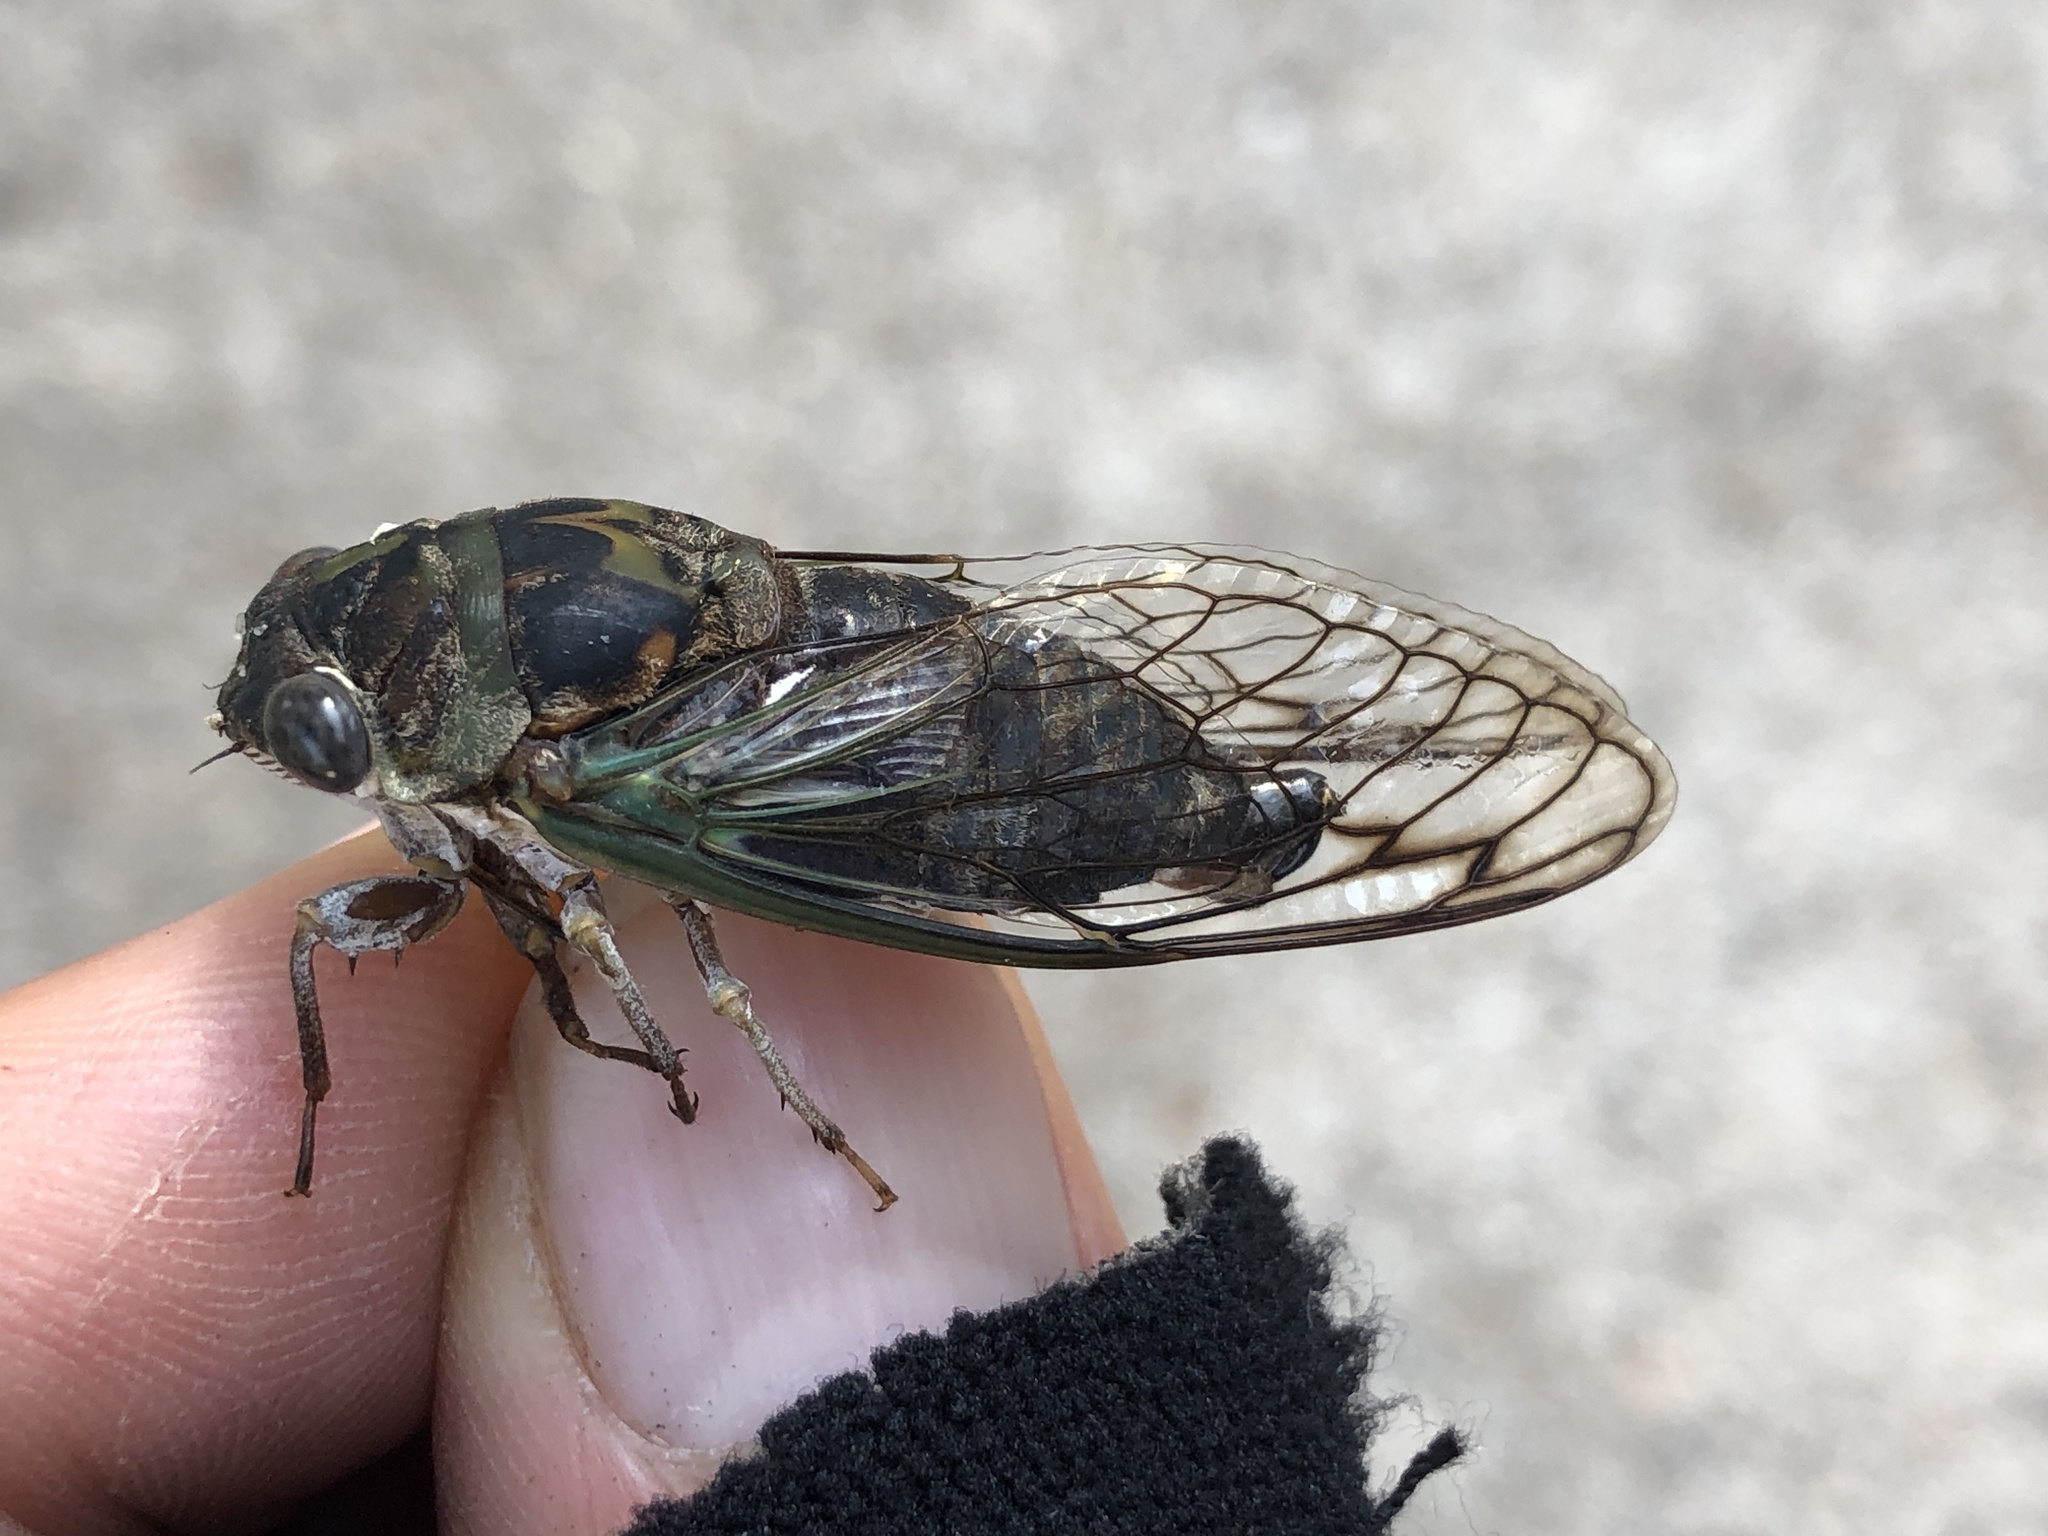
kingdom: Animalia
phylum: Arthropoda
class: Insecta
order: Hemiptera
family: Cicadidae
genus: Neotibicen
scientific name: Neotibicen davisi
